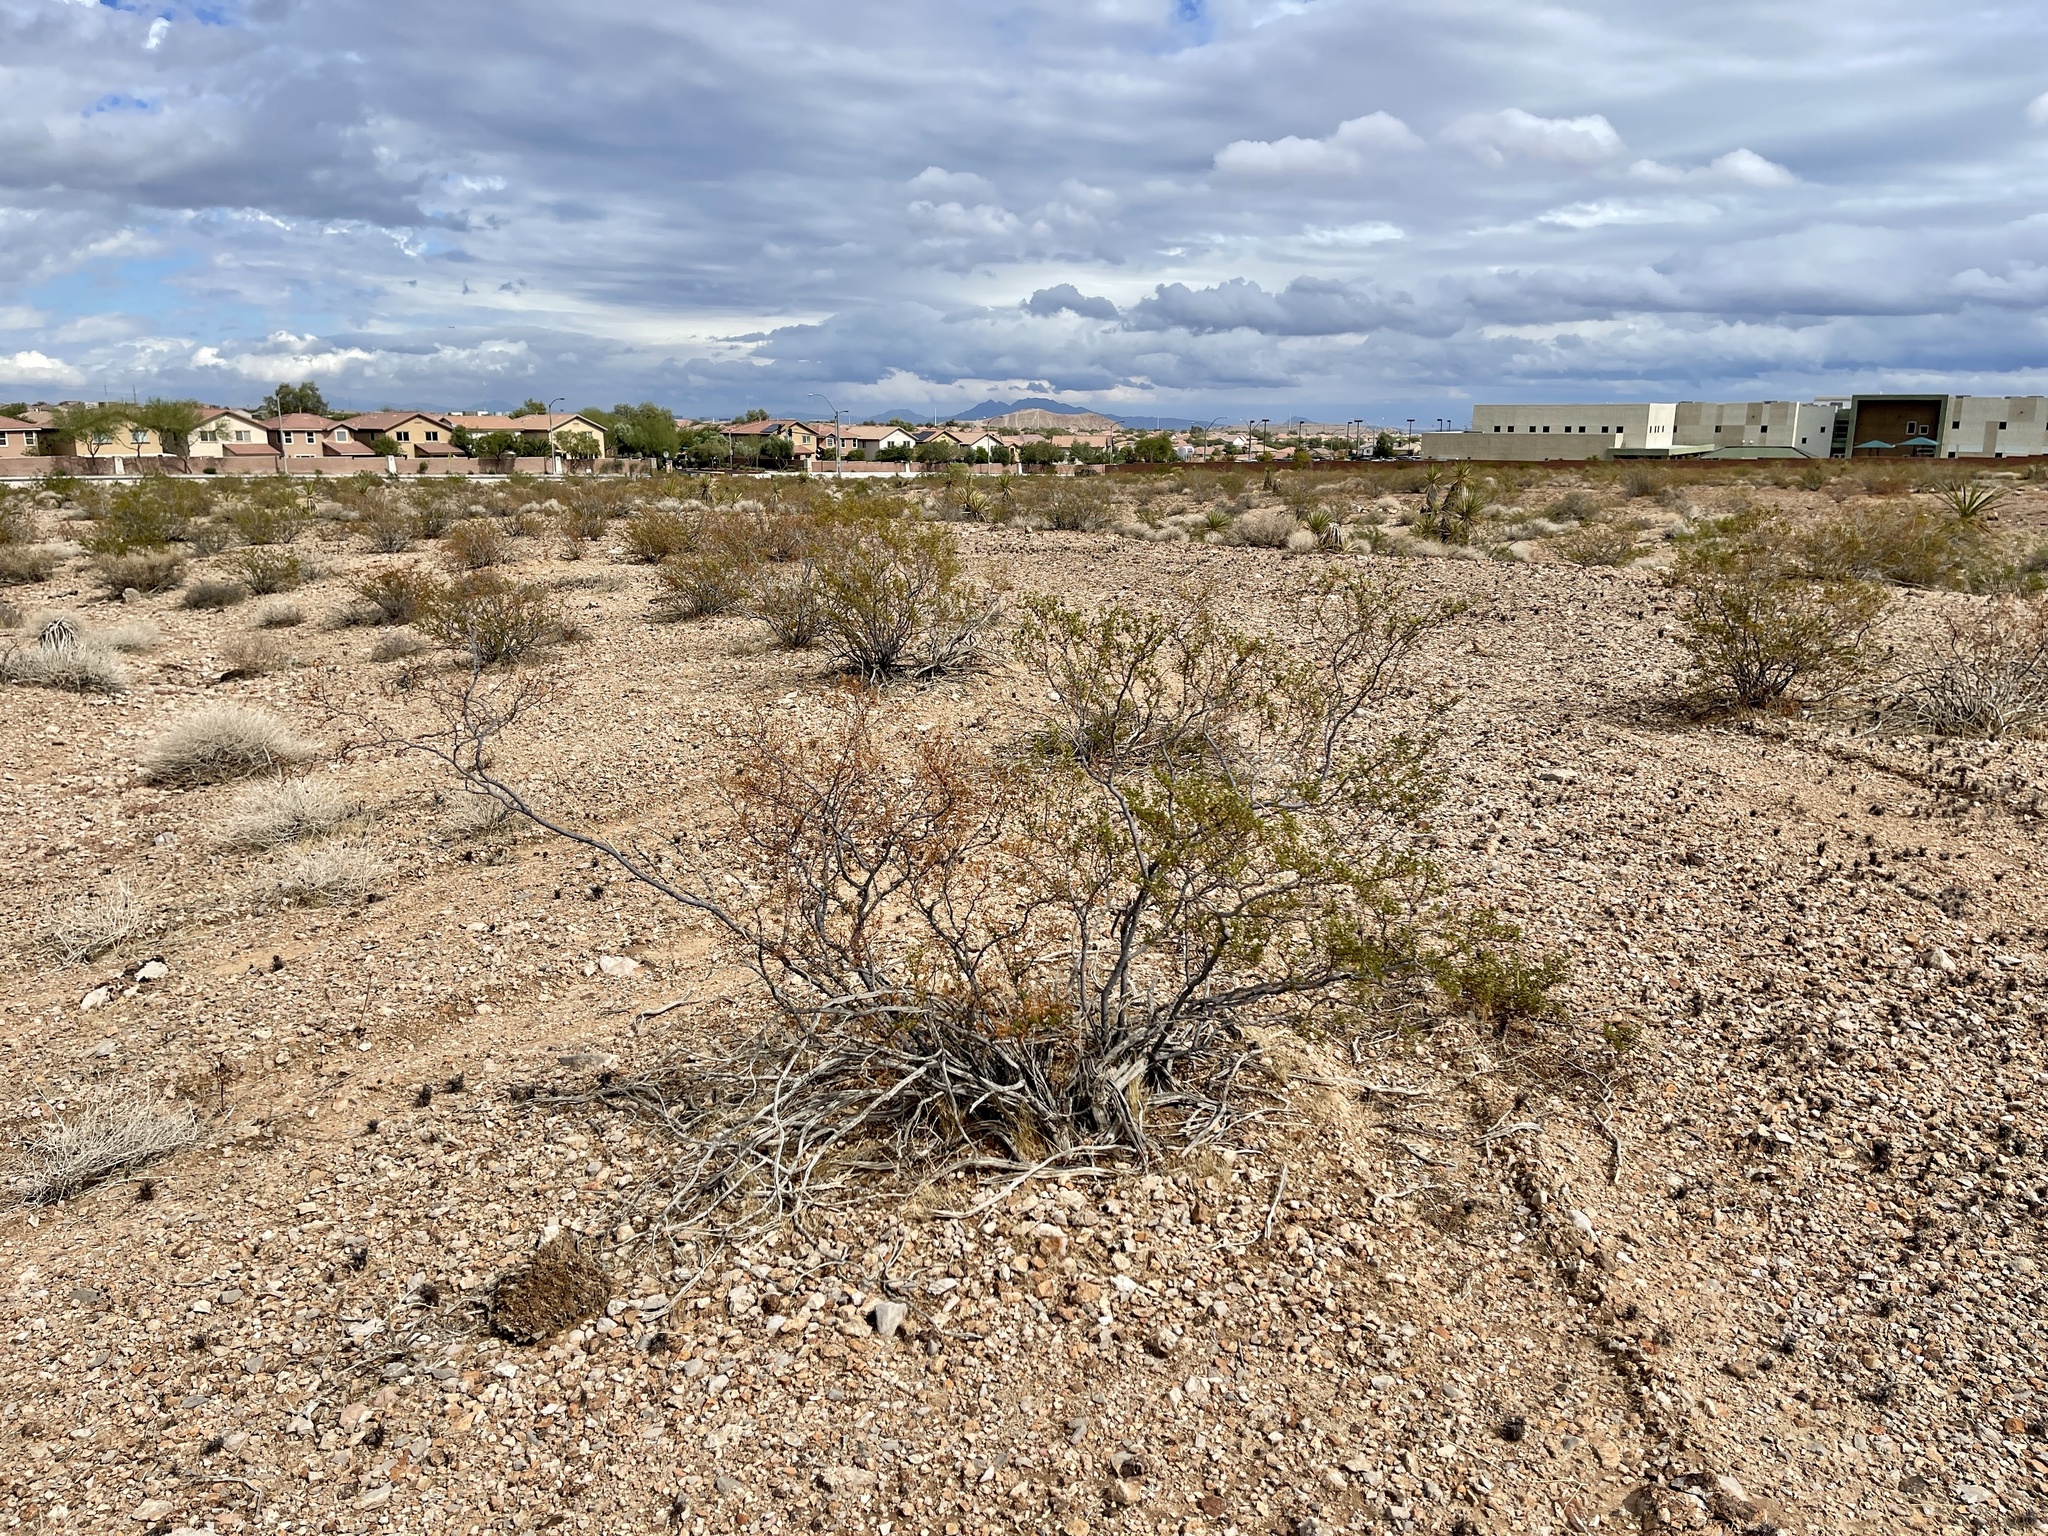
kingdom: Plantae
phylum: Tracheophyta
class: Magnoliopsida
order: Zygophyllales
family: Zygophyllaceae
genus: Larrea
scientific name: Larrea tridentata
